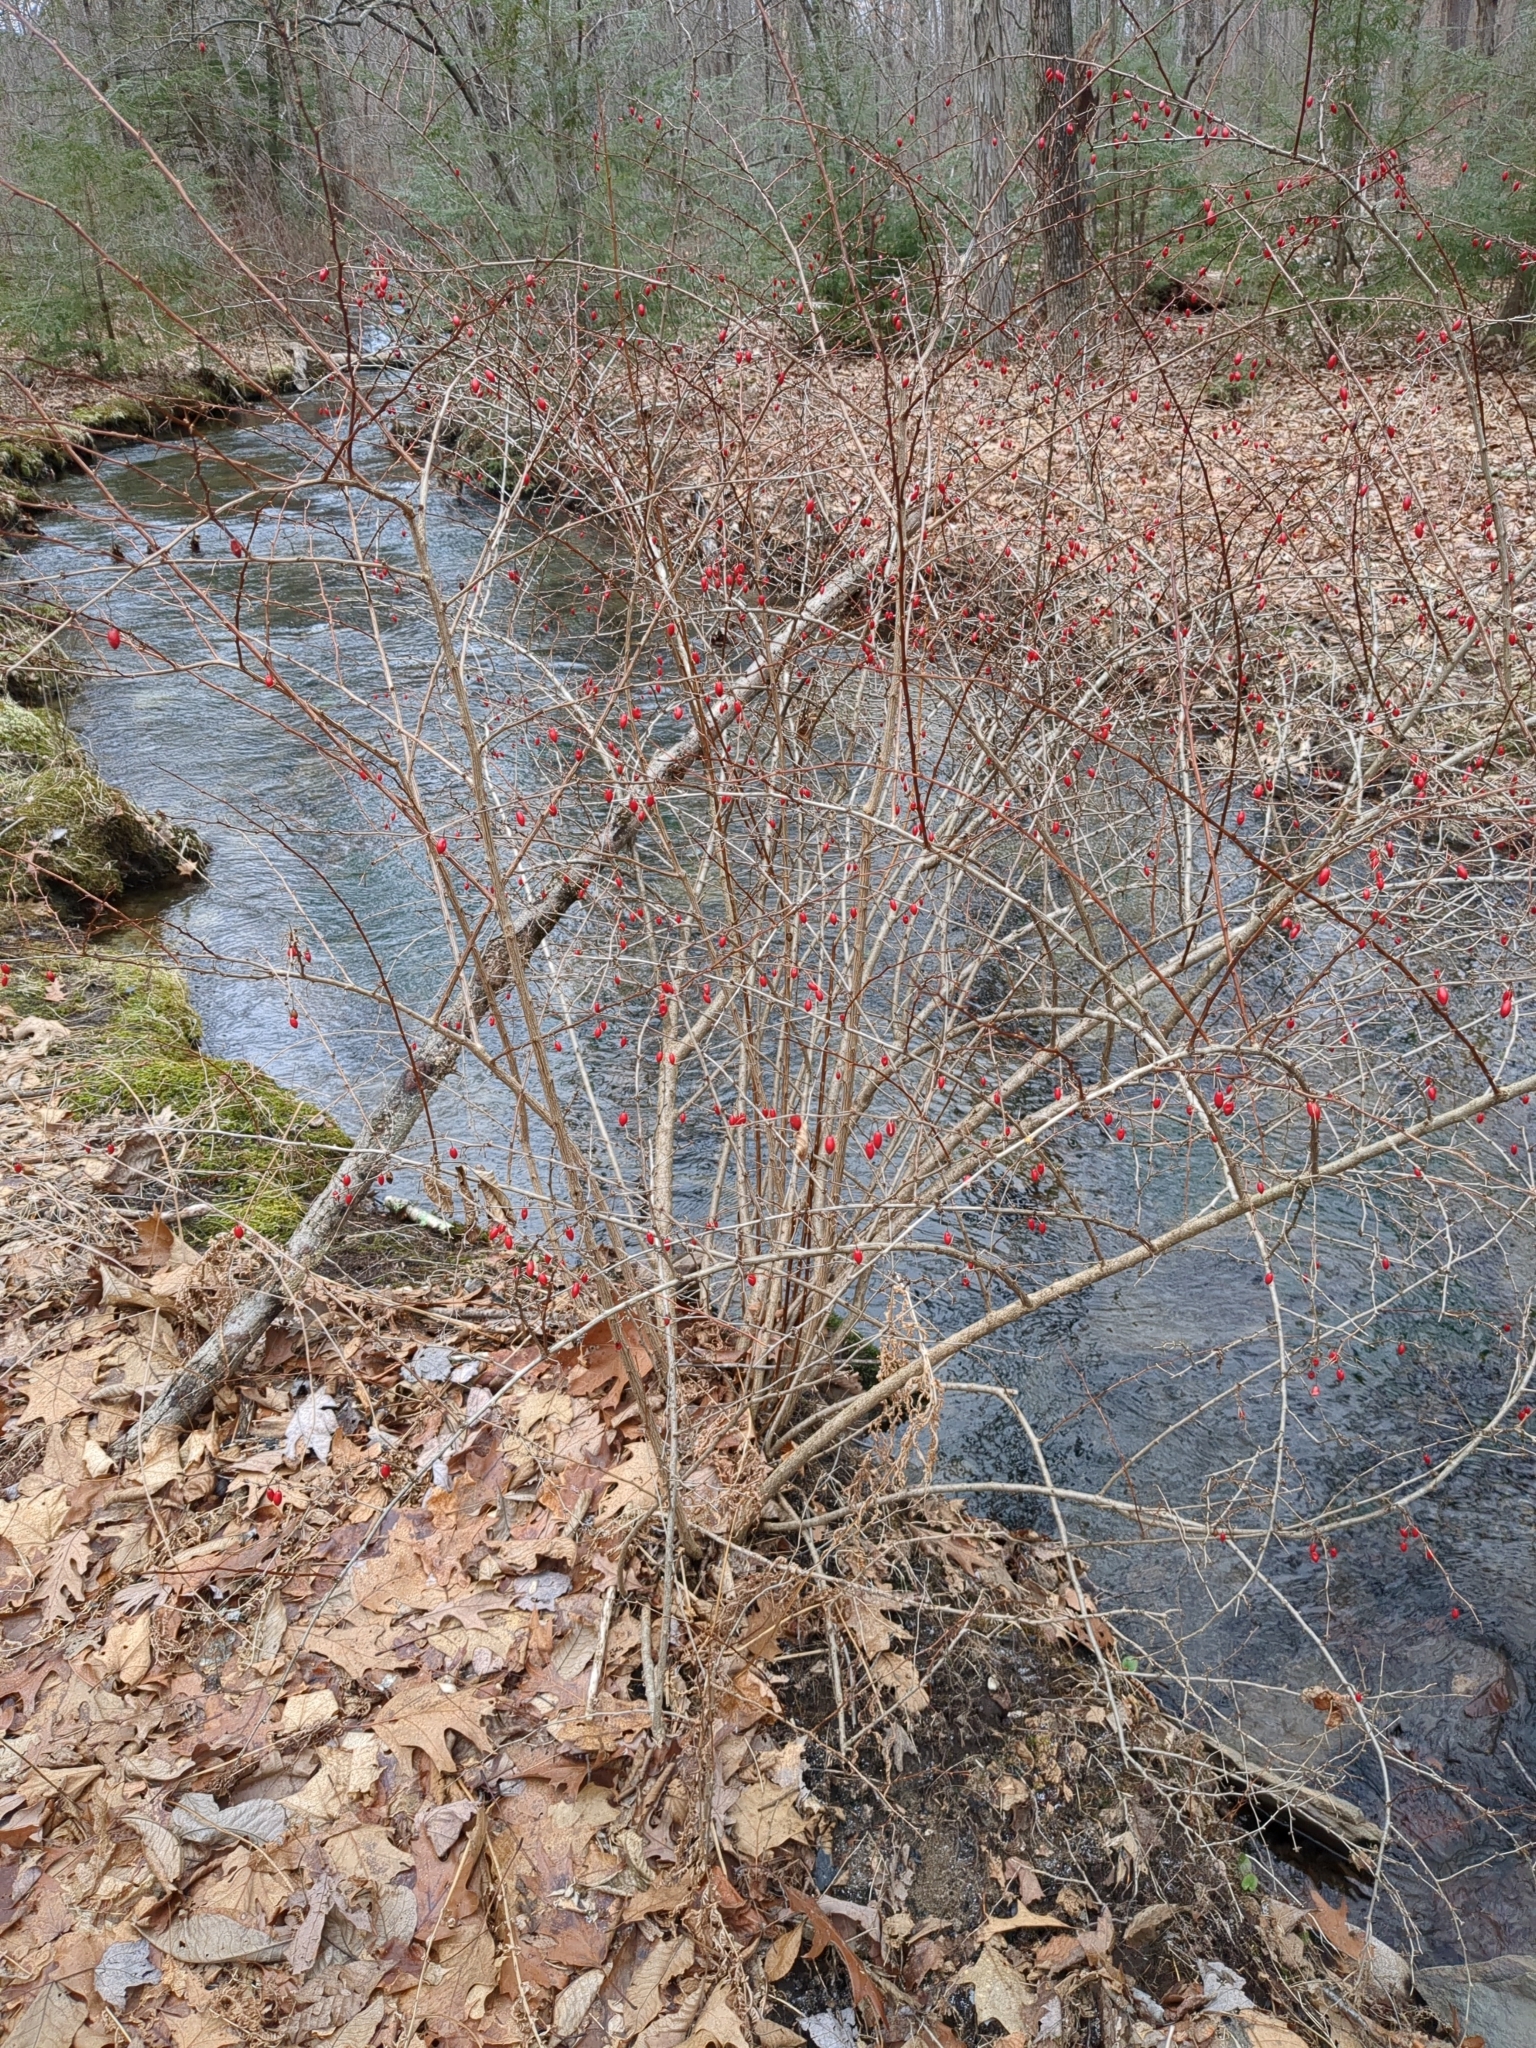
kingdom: Plantae
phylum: Tracheophyta
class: Magnoliopsida
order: Ranunculales
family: Berberidaceae
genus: Berberis
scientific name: Berberis thunbergii
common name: Japanese barberry
